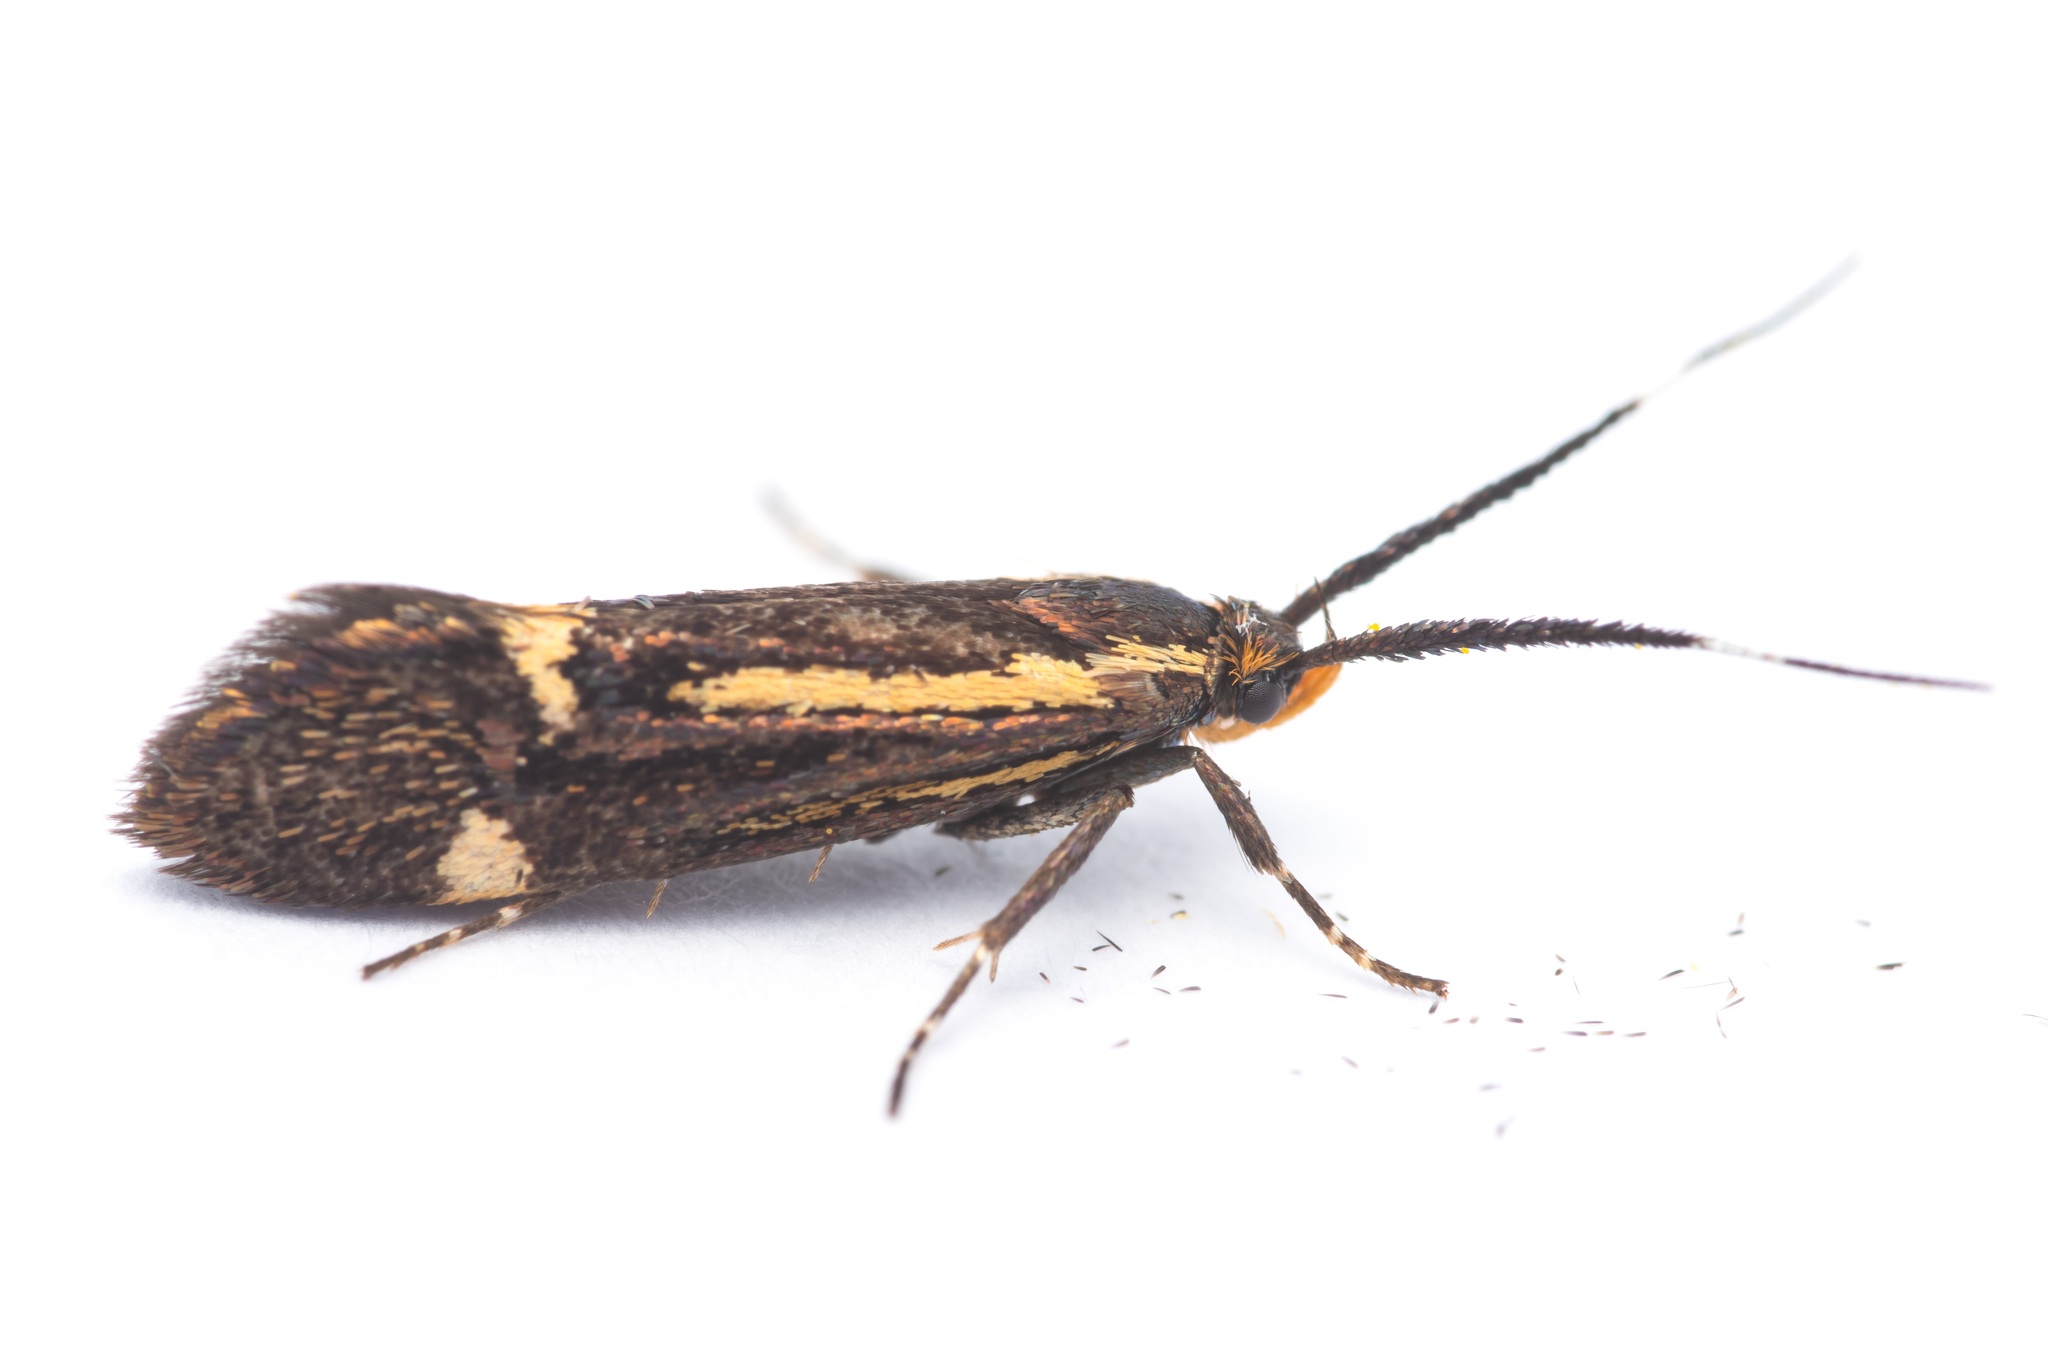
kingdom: Animalia
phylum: Arthropoda
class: Insecta
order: Lepidoptera
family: Oecophoridae
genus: Dafa
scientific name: Dafa Esperia sulphurella
